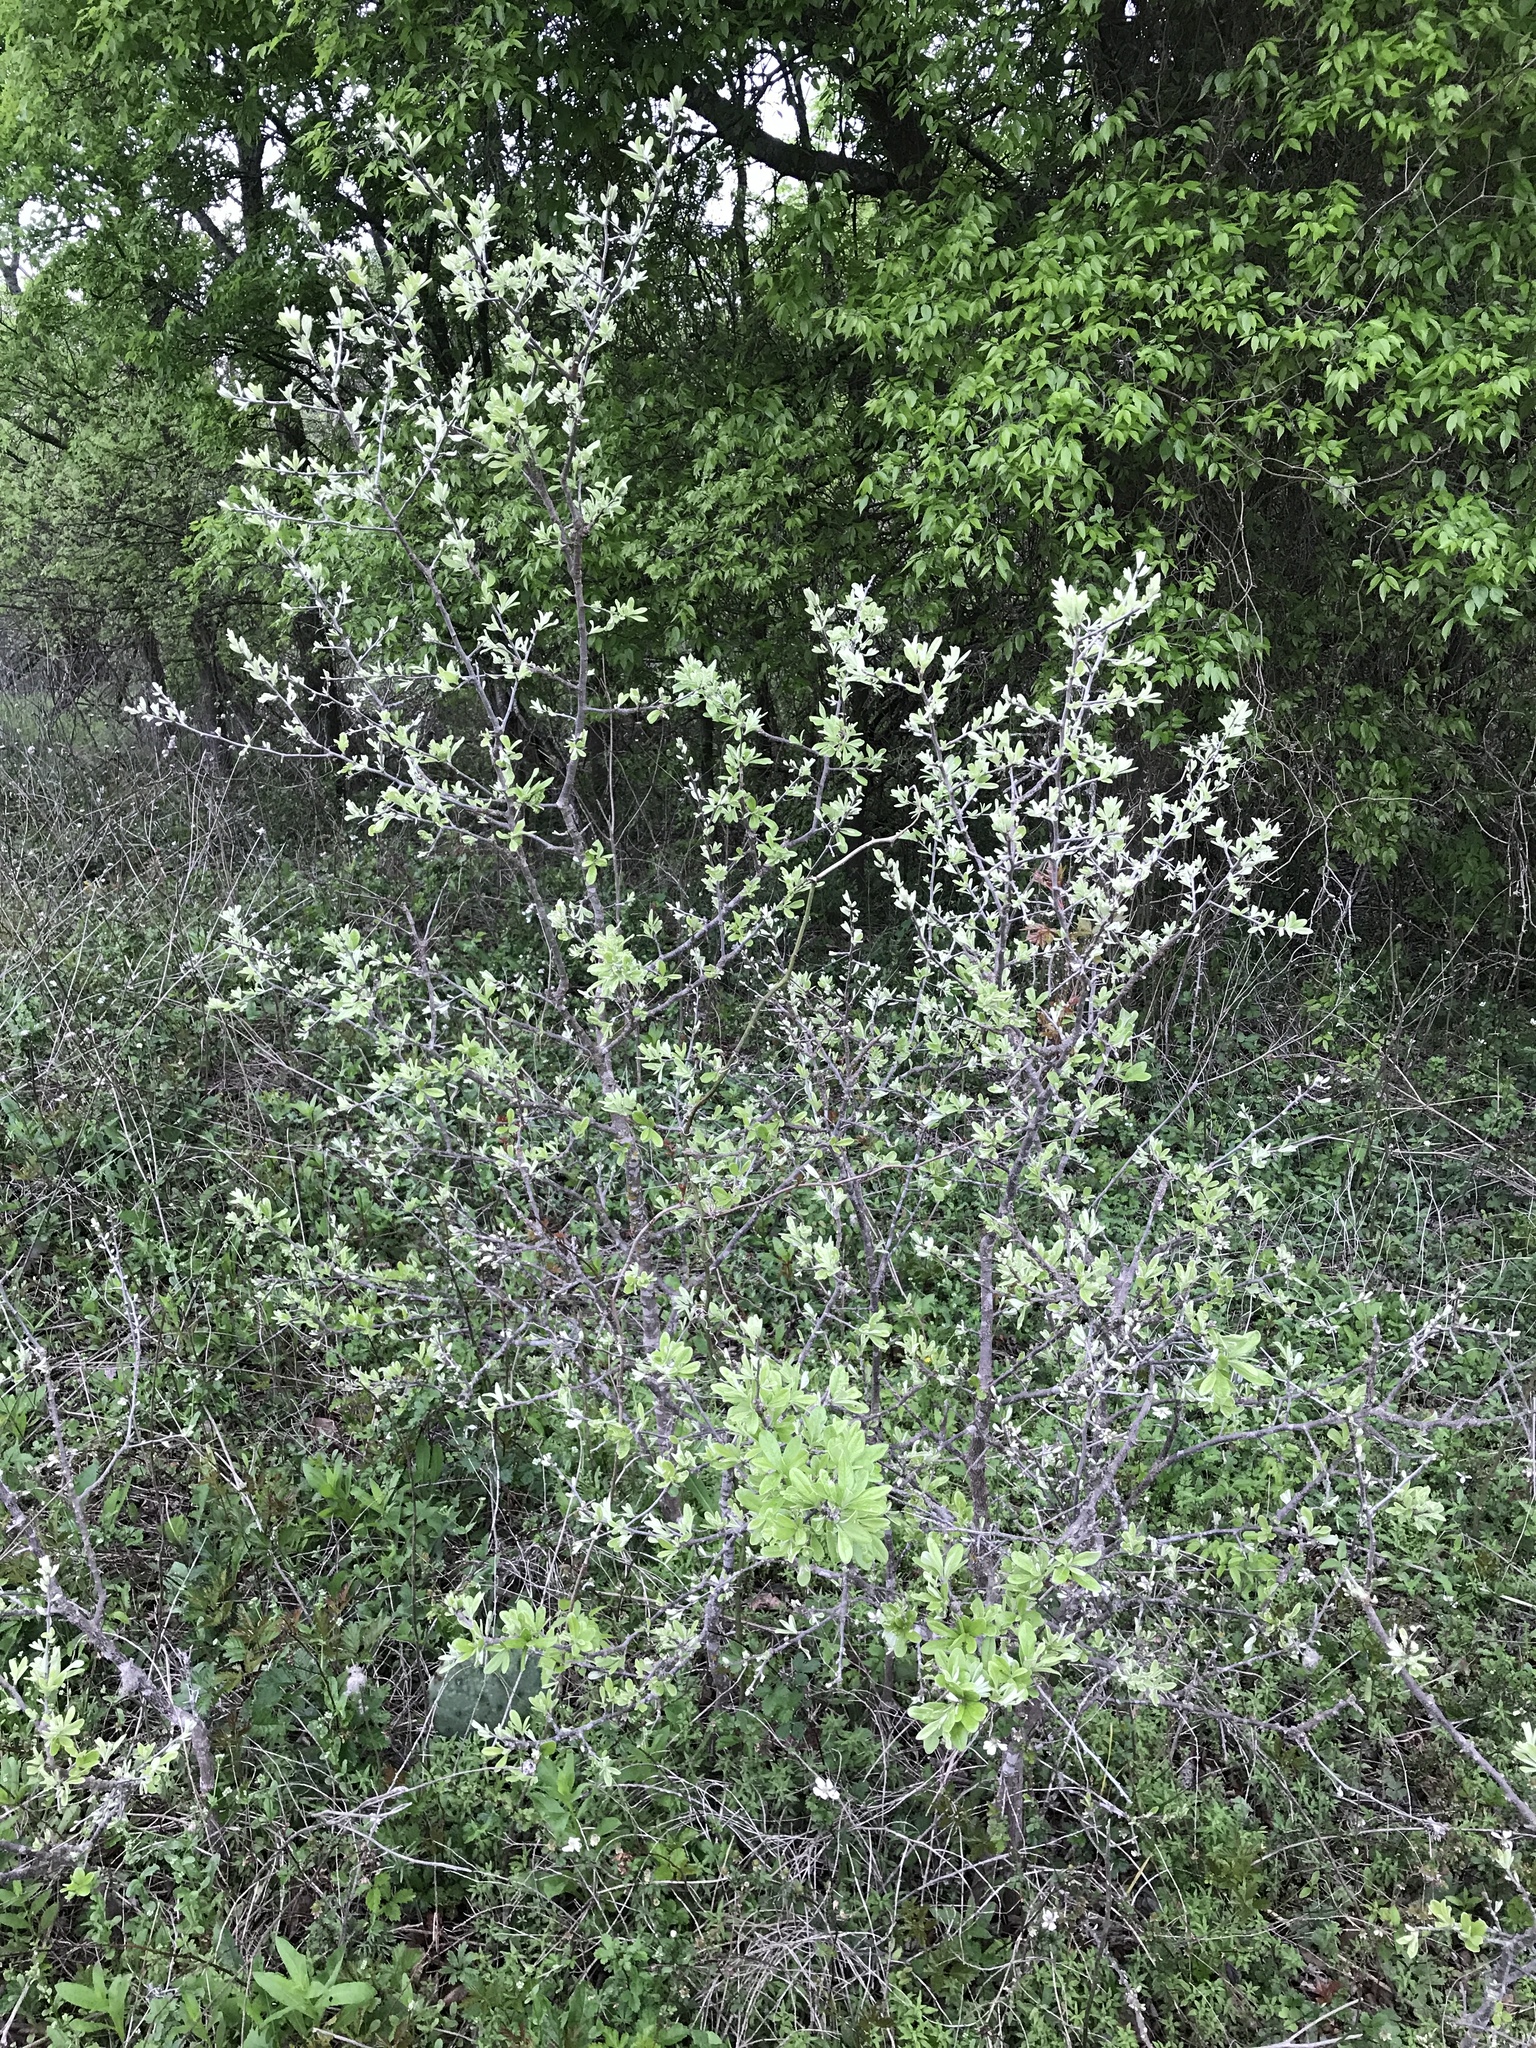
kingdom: Plantae
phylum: Tracheophyta
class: Magnoliopsida
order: Ericales
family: Sapotaceae
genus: Sideroxylon
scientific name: Sideroxylon lanuginosum
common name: Chittamwood
